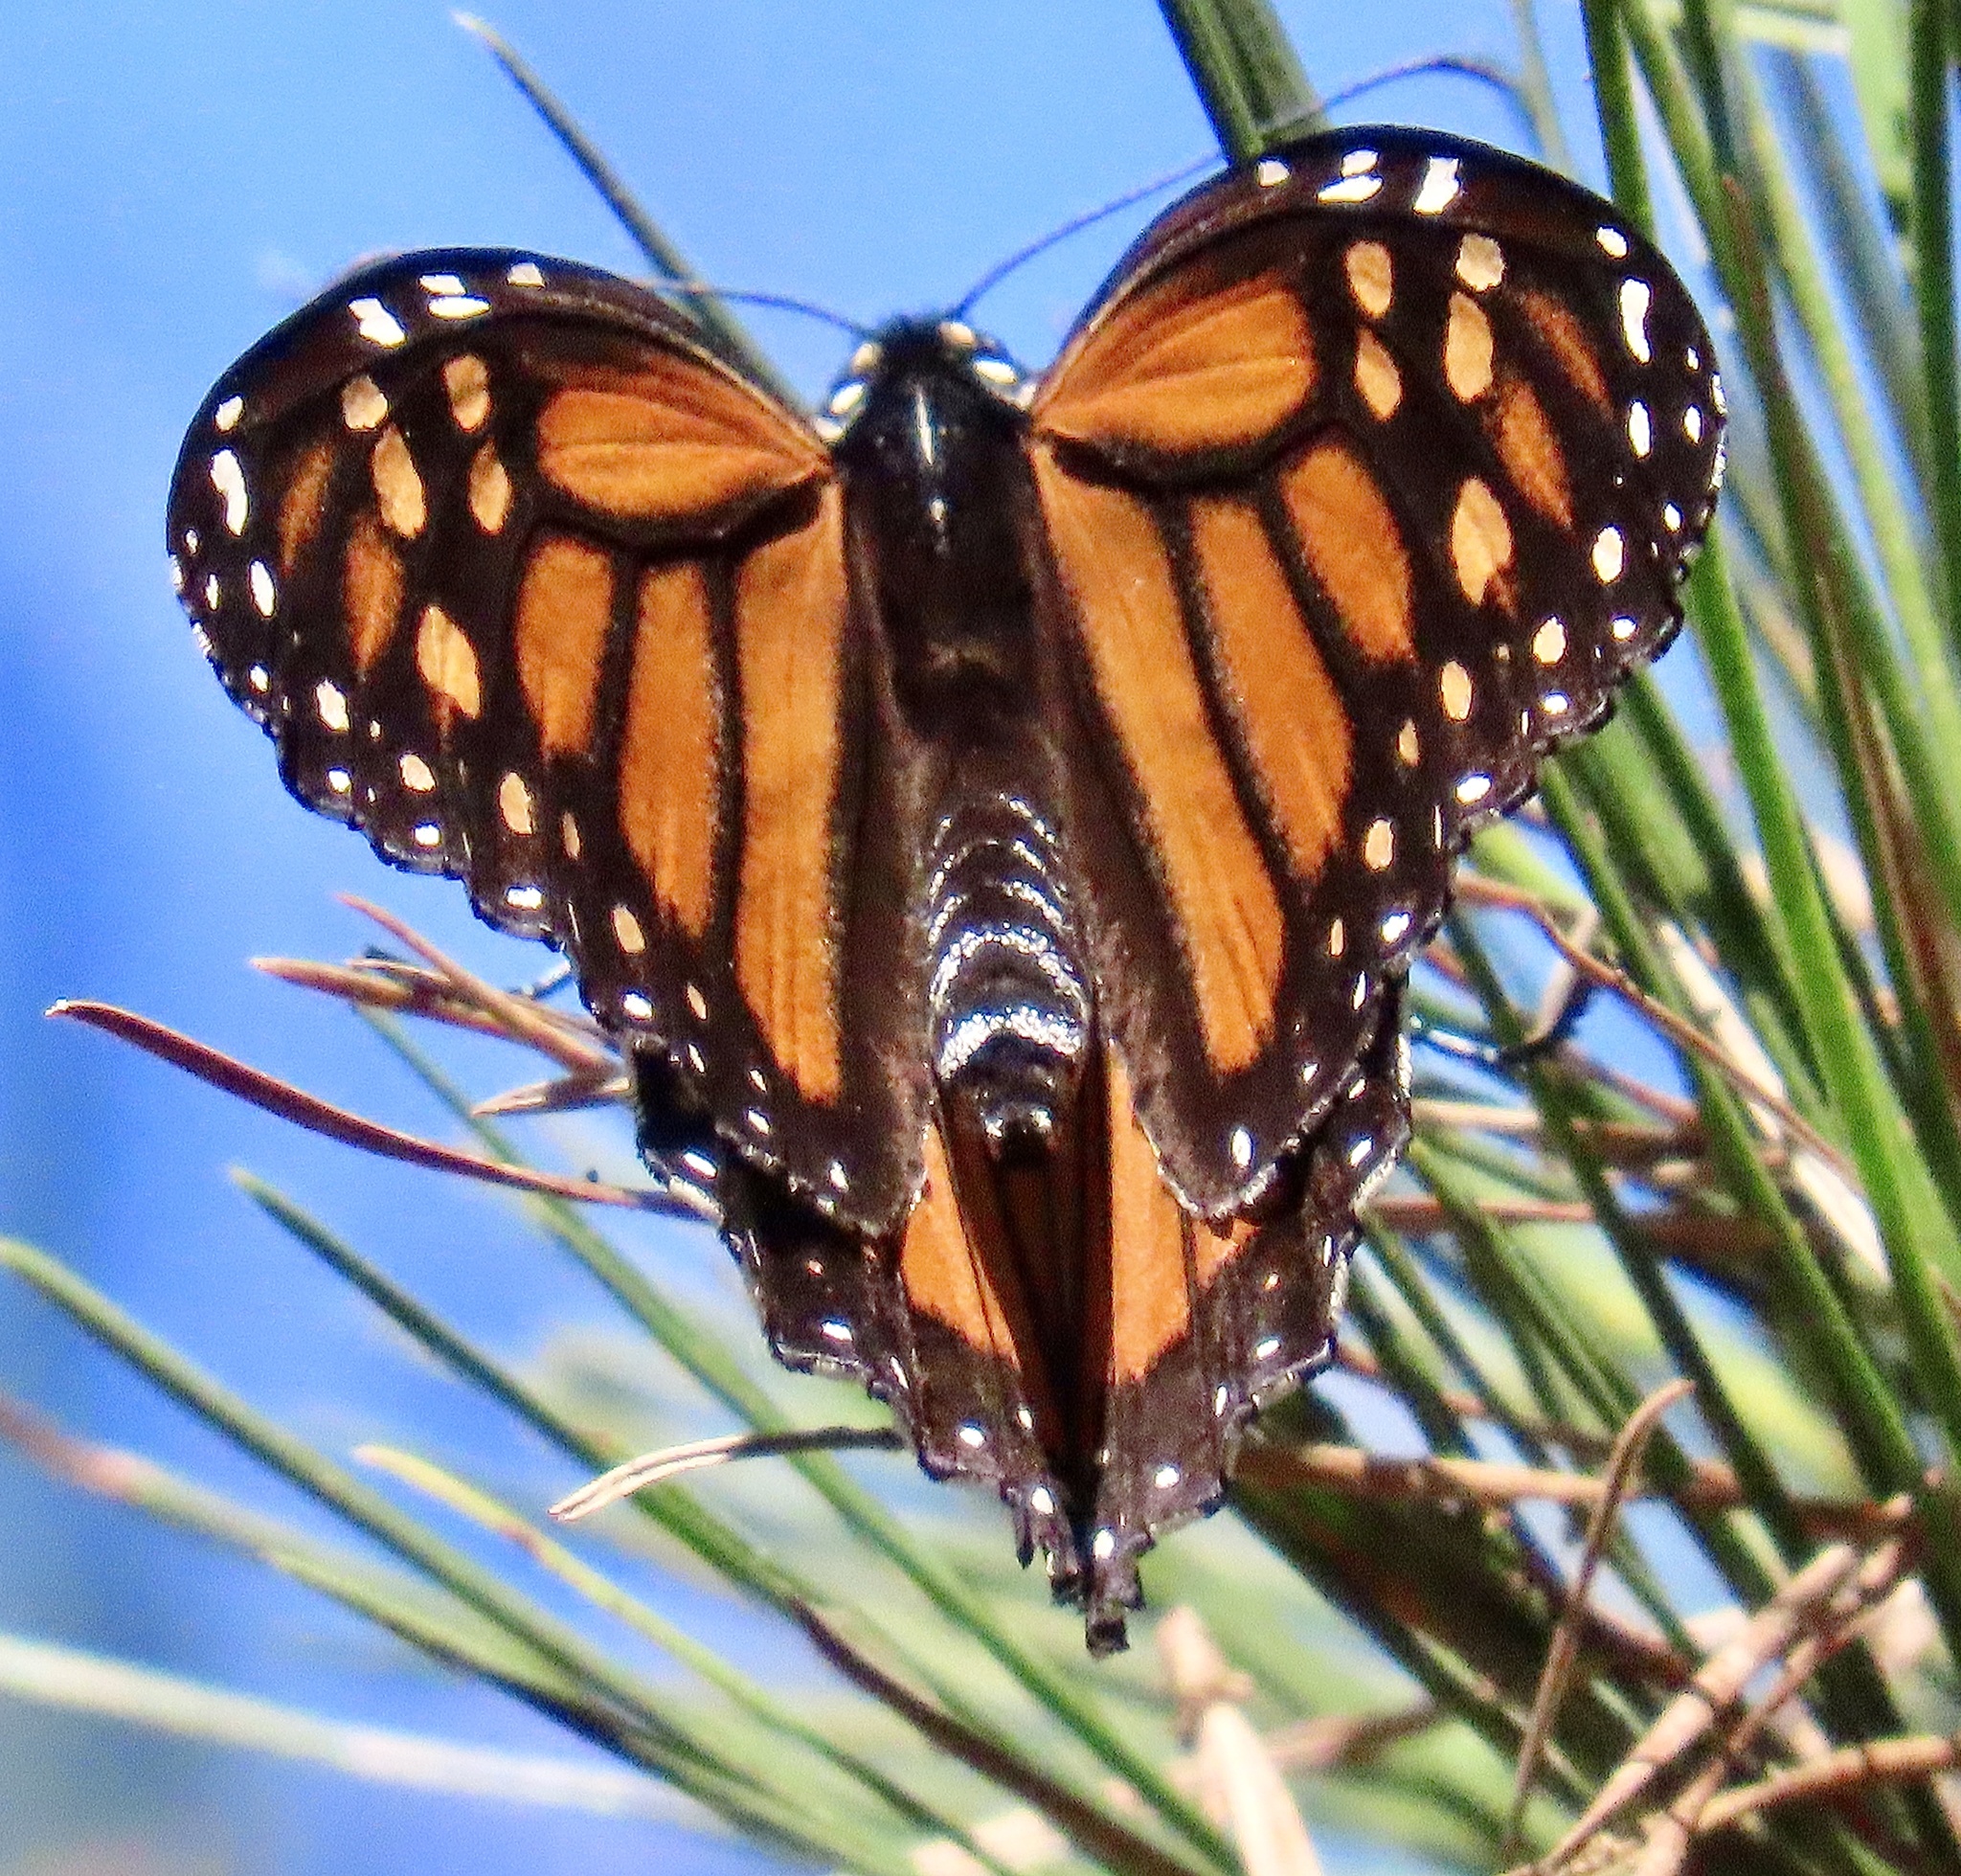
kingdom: Animalia
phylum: Arthropoda
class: Insecta
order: Lepidoptera
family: Nymphalidae
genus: Danaus
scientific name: Danaus plexippus
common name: Monarch
